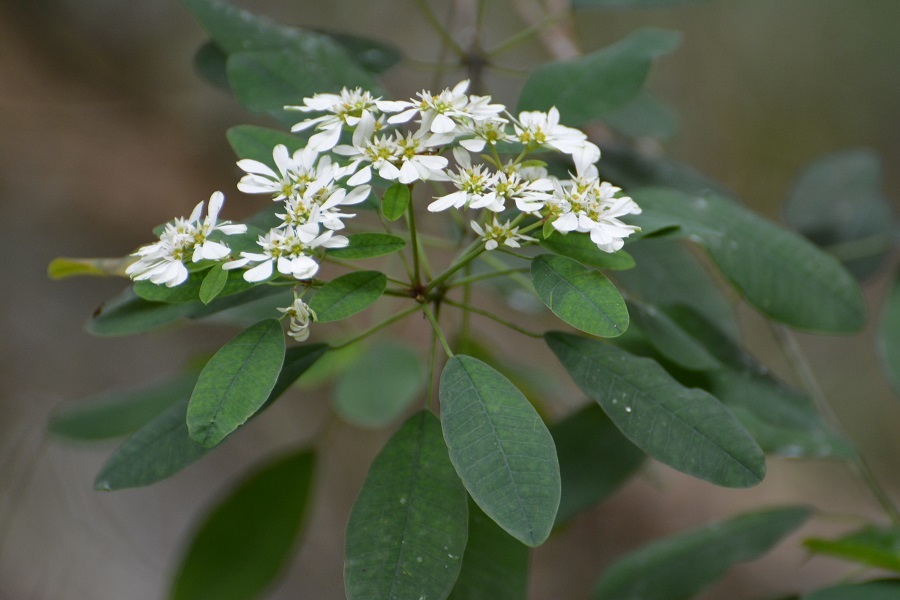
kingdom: Plantae
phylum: Tracheophyta
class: Magnoliopsida
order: Malpighiales
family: Euphorbiaceae
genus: Euphorbia
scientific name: Euphorbia leucocephala
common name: Pascuita
